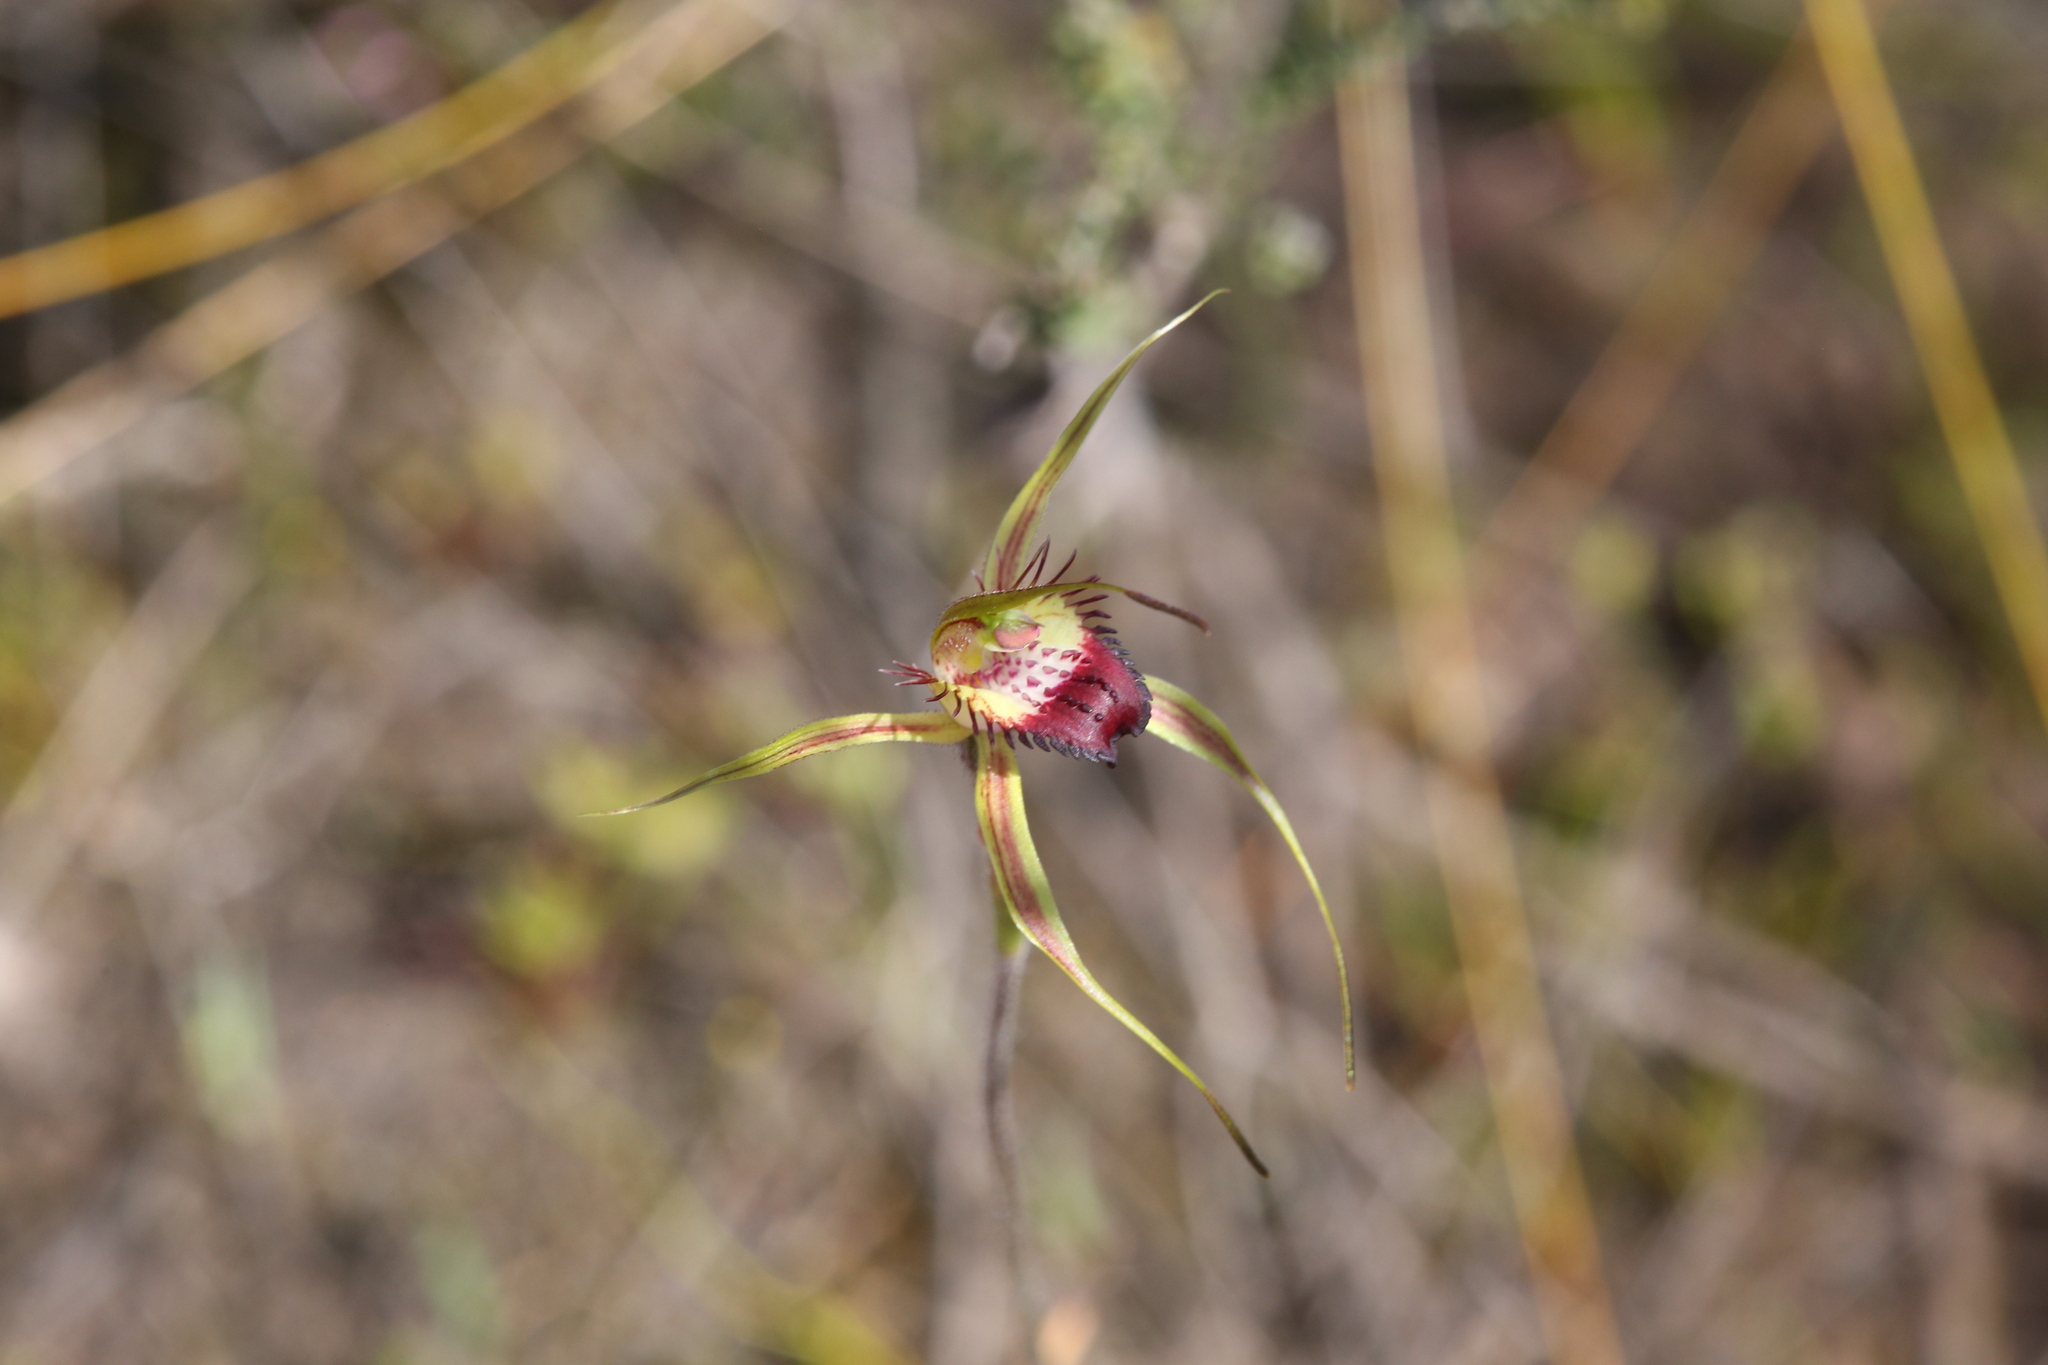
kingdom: Plantae
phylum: Tracheophyta
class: Liliopsida
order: Asparagales
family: Orchidaceae
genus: Caladenia
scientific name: Caladenia paludosa
